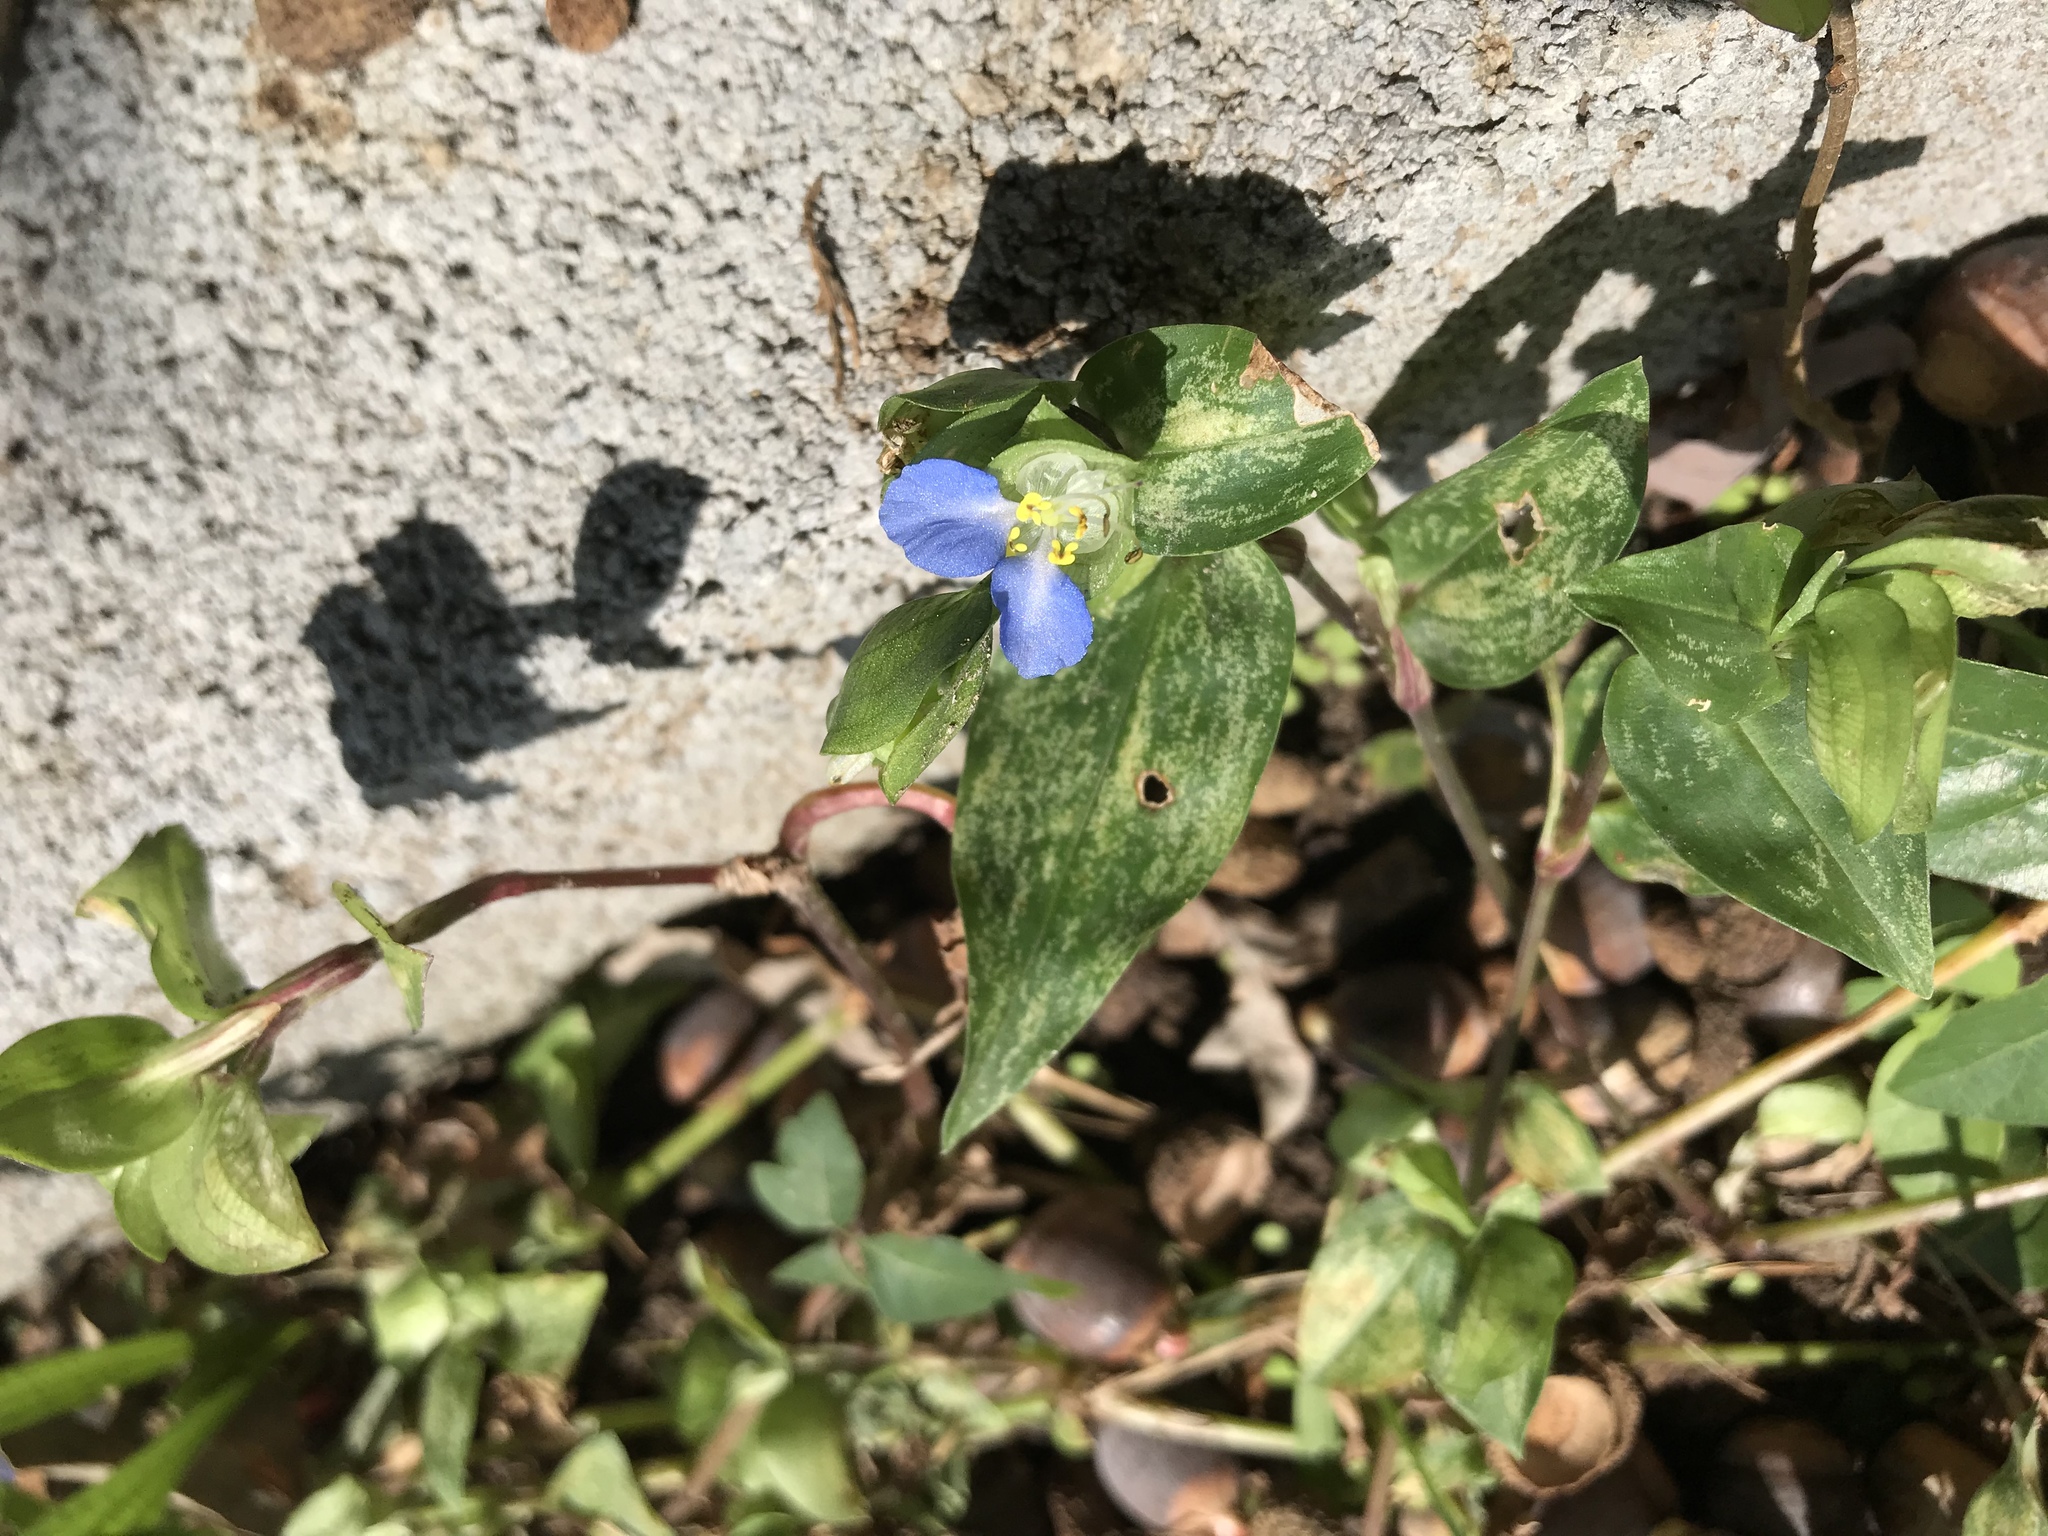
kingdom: Plantae
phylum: Tracheophyta
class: Liliopsida
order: Commelinales
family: Commelinaceae
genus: Commelina
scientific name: Commelina communis
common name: Asiatic dayflower
